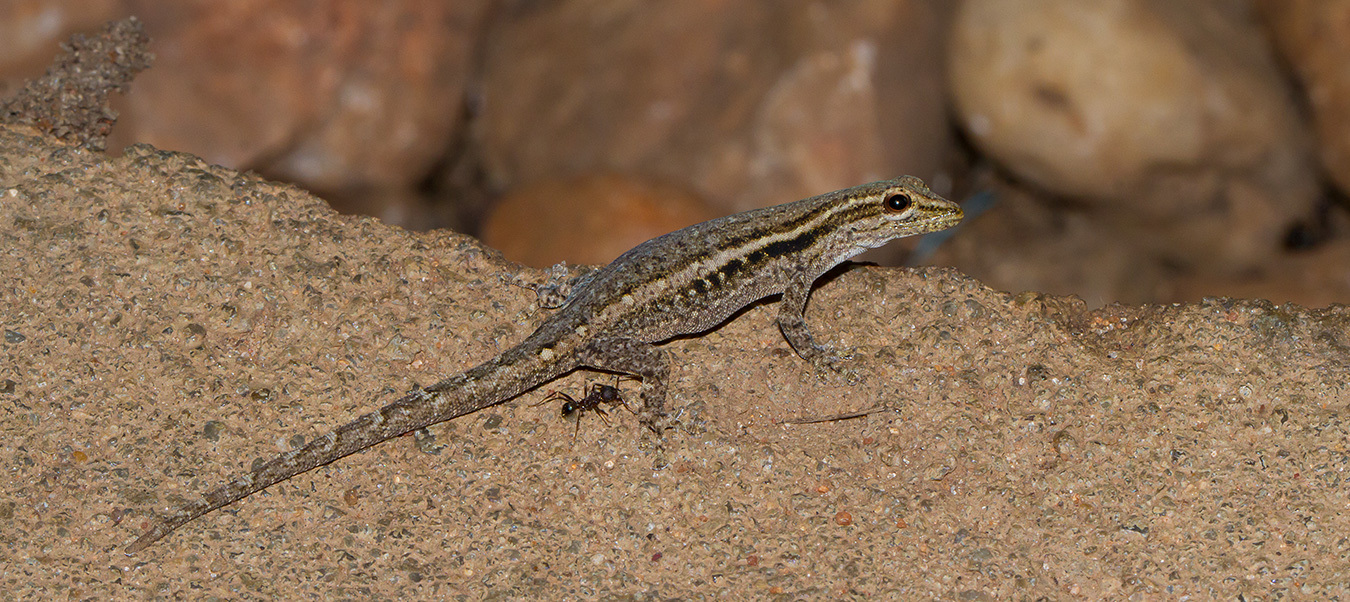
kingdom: Animalia
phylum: Chordata
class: Squamata
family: Gekkonidae
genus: Lygodactylus
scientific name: Lygodactylus capensis
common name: Cape dwarf gecko
